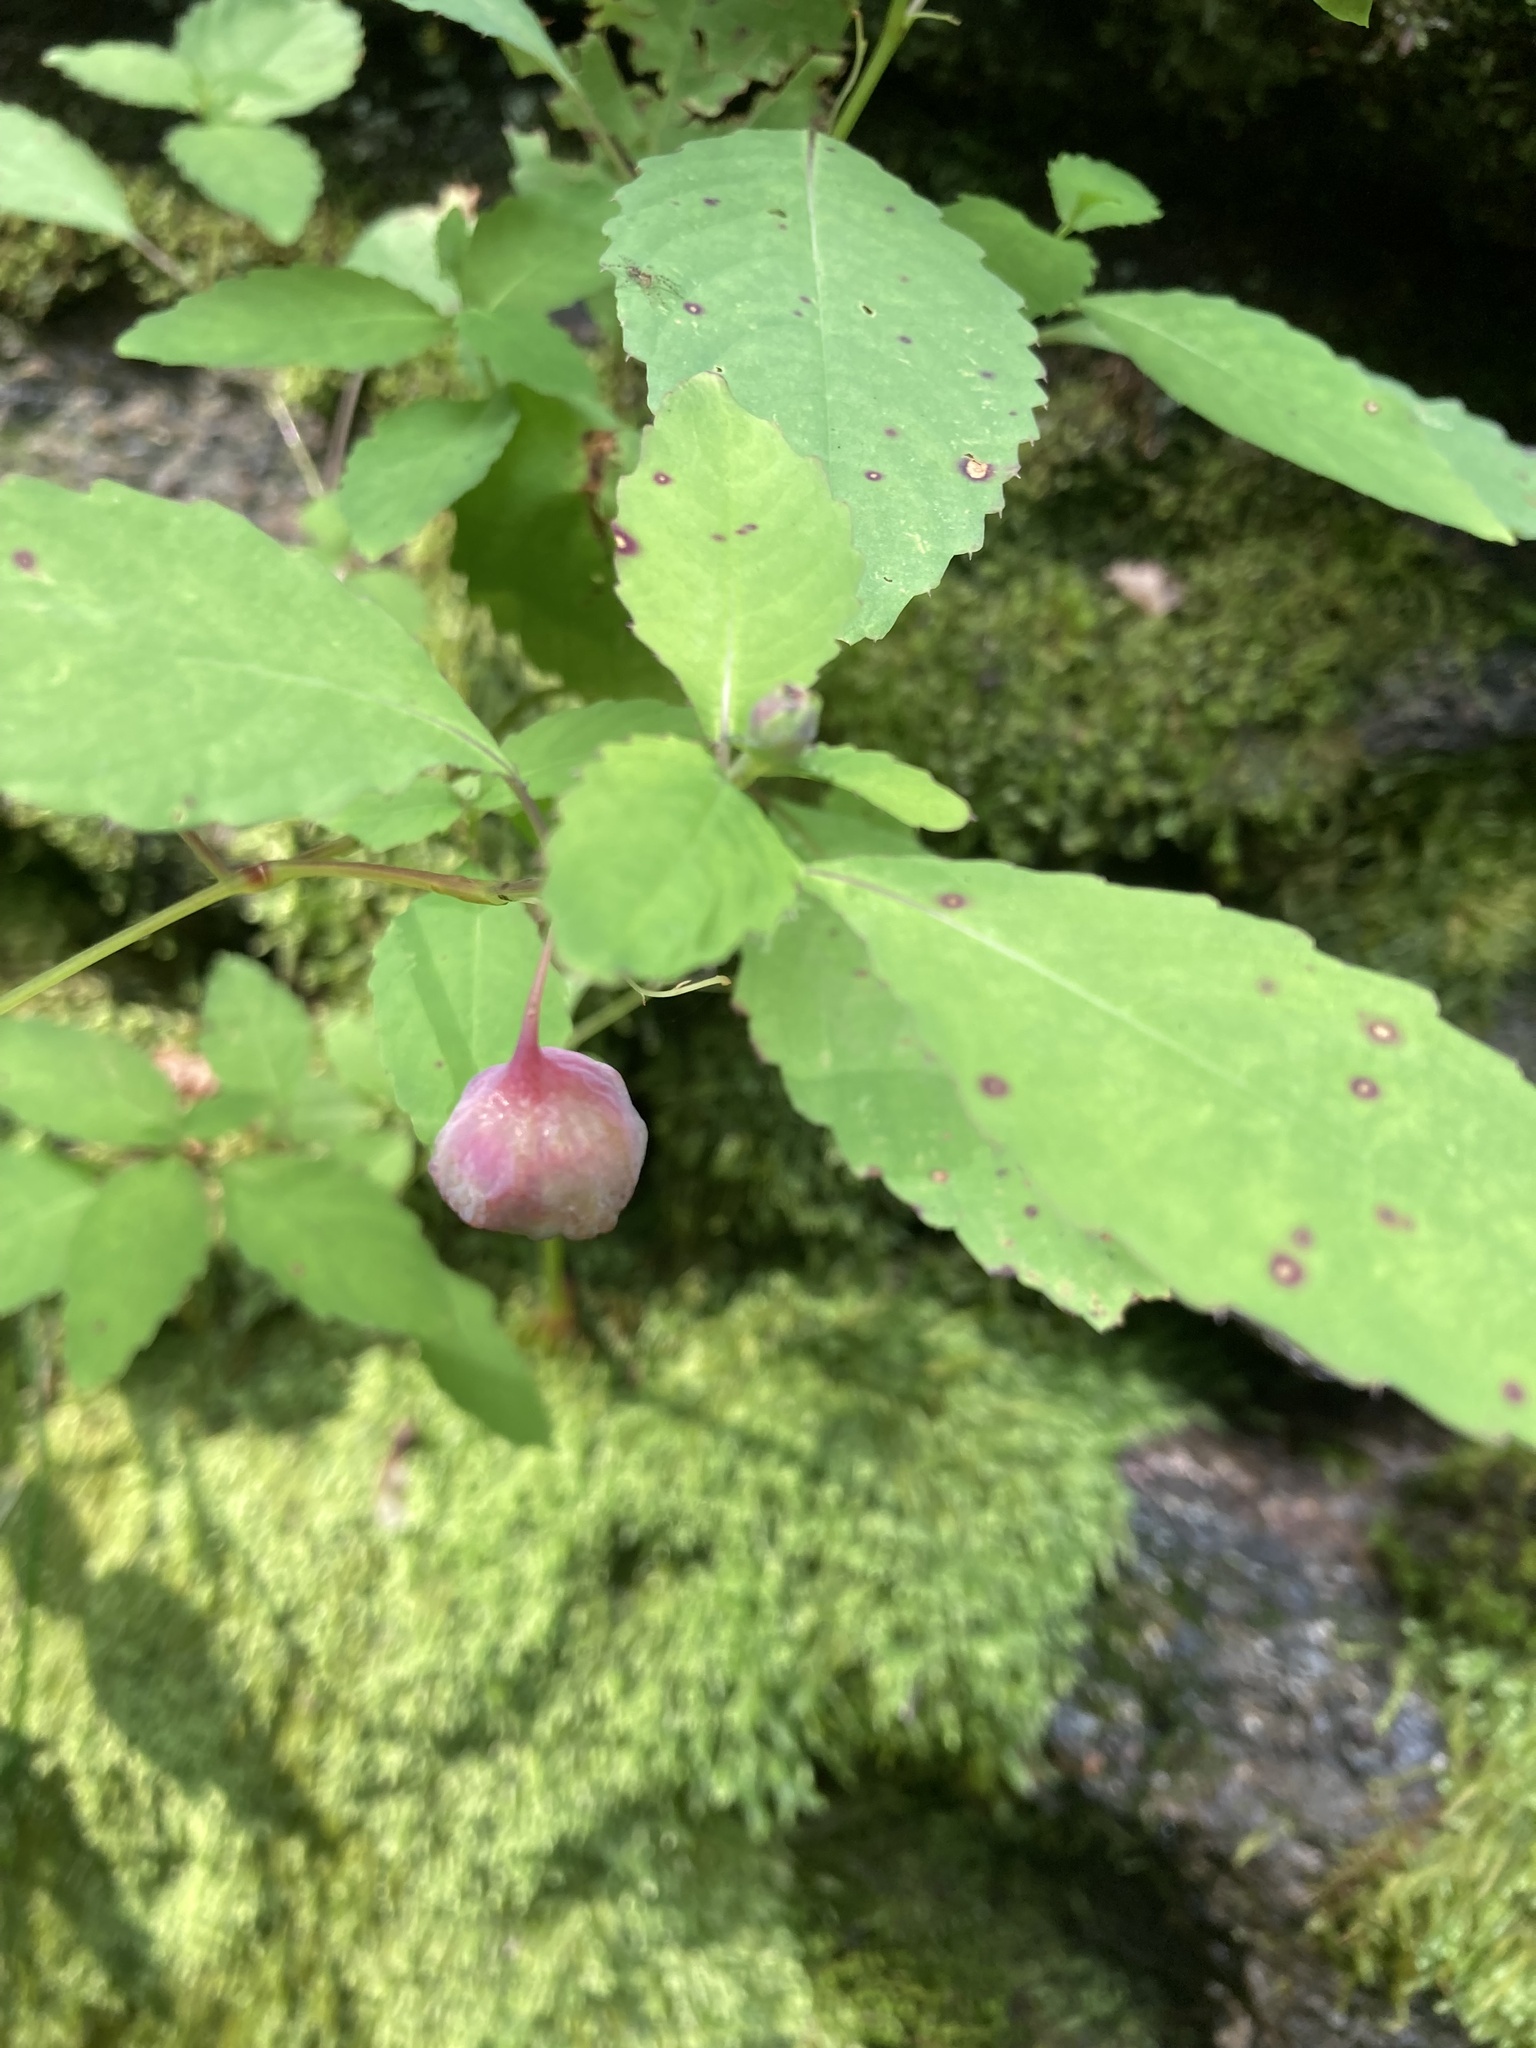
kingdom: Animalia
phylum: Arthropoda
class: Insecta
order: Diptera
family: Cecidomyiidae
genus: Schizomyia
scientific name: Schizomyia impatientis
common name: Jewelweed gall midge
